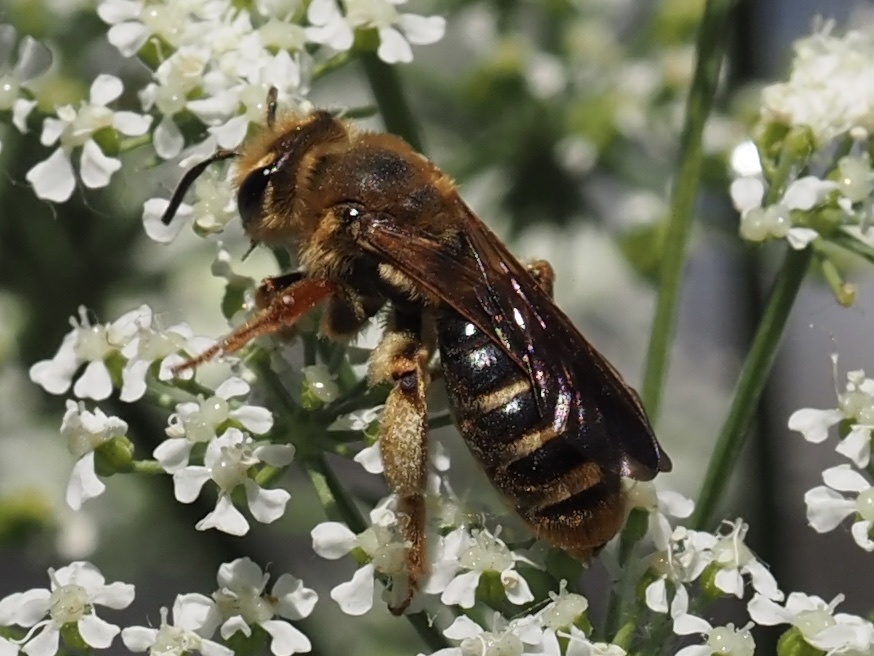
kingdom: Animalia
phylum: Arthropoda
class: Insecta
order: Hymenoptera
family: Andrenidae
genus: Andrena
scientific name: Andrena prunorum
